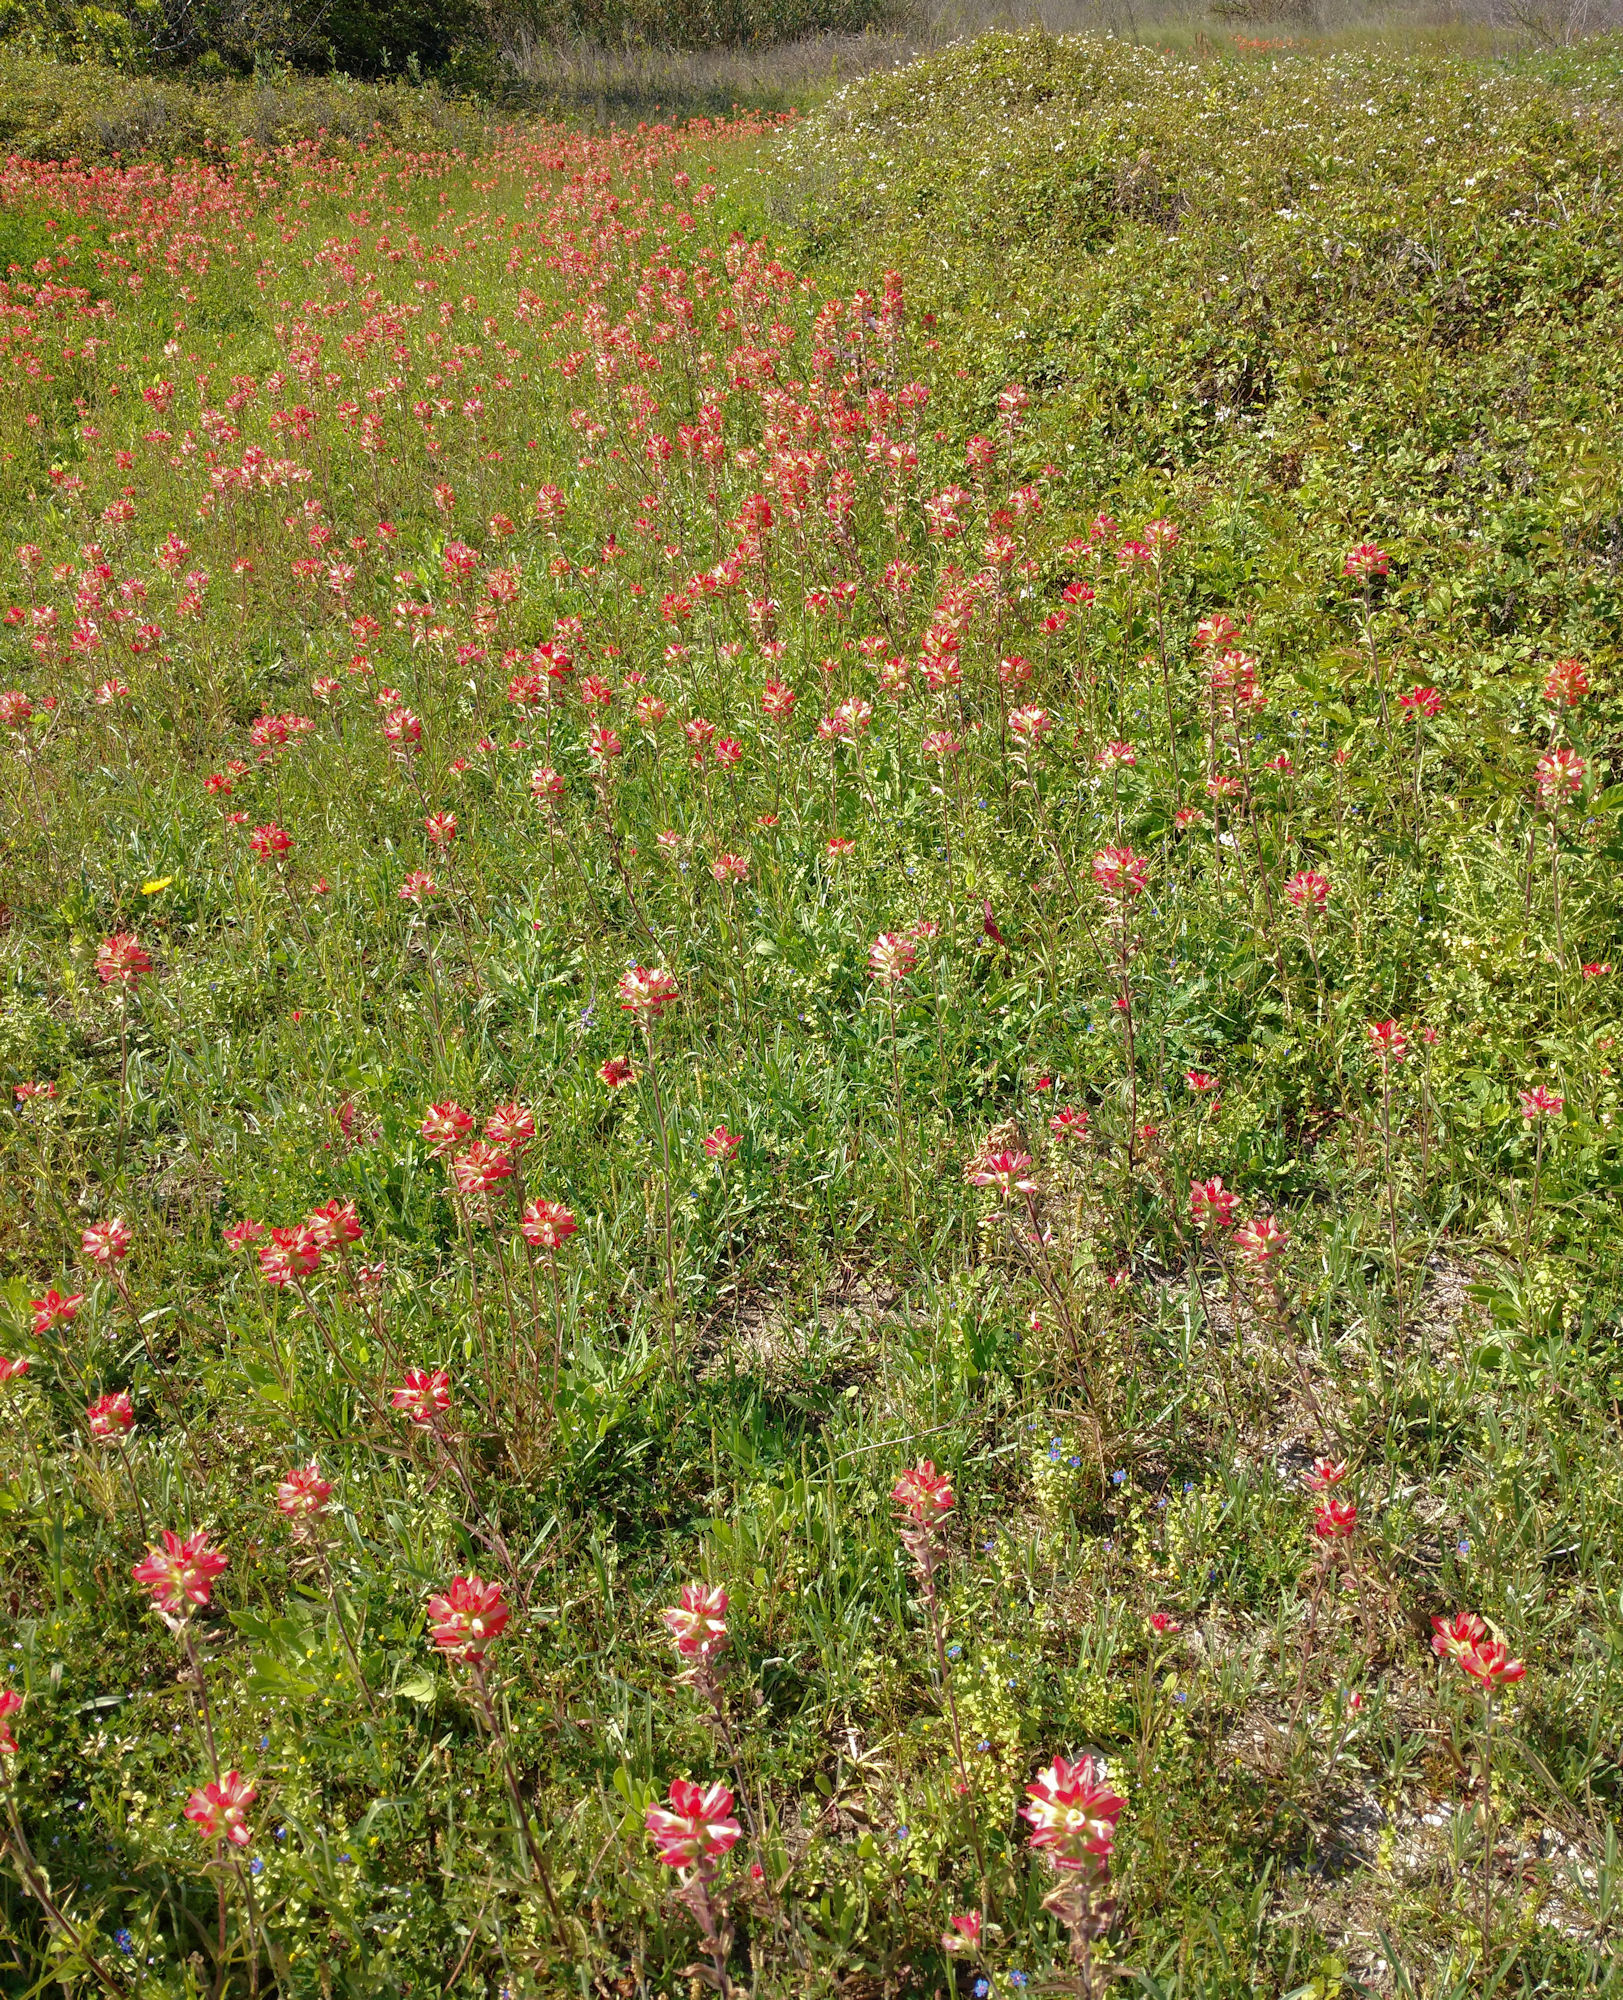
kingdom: Plantae
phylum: Tracheophyta
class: Magnoliopsida
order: Lamiales
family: Orobanchaceae
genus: Castilleja
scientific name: Castilleja indivisa
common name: Texas paintbrush
